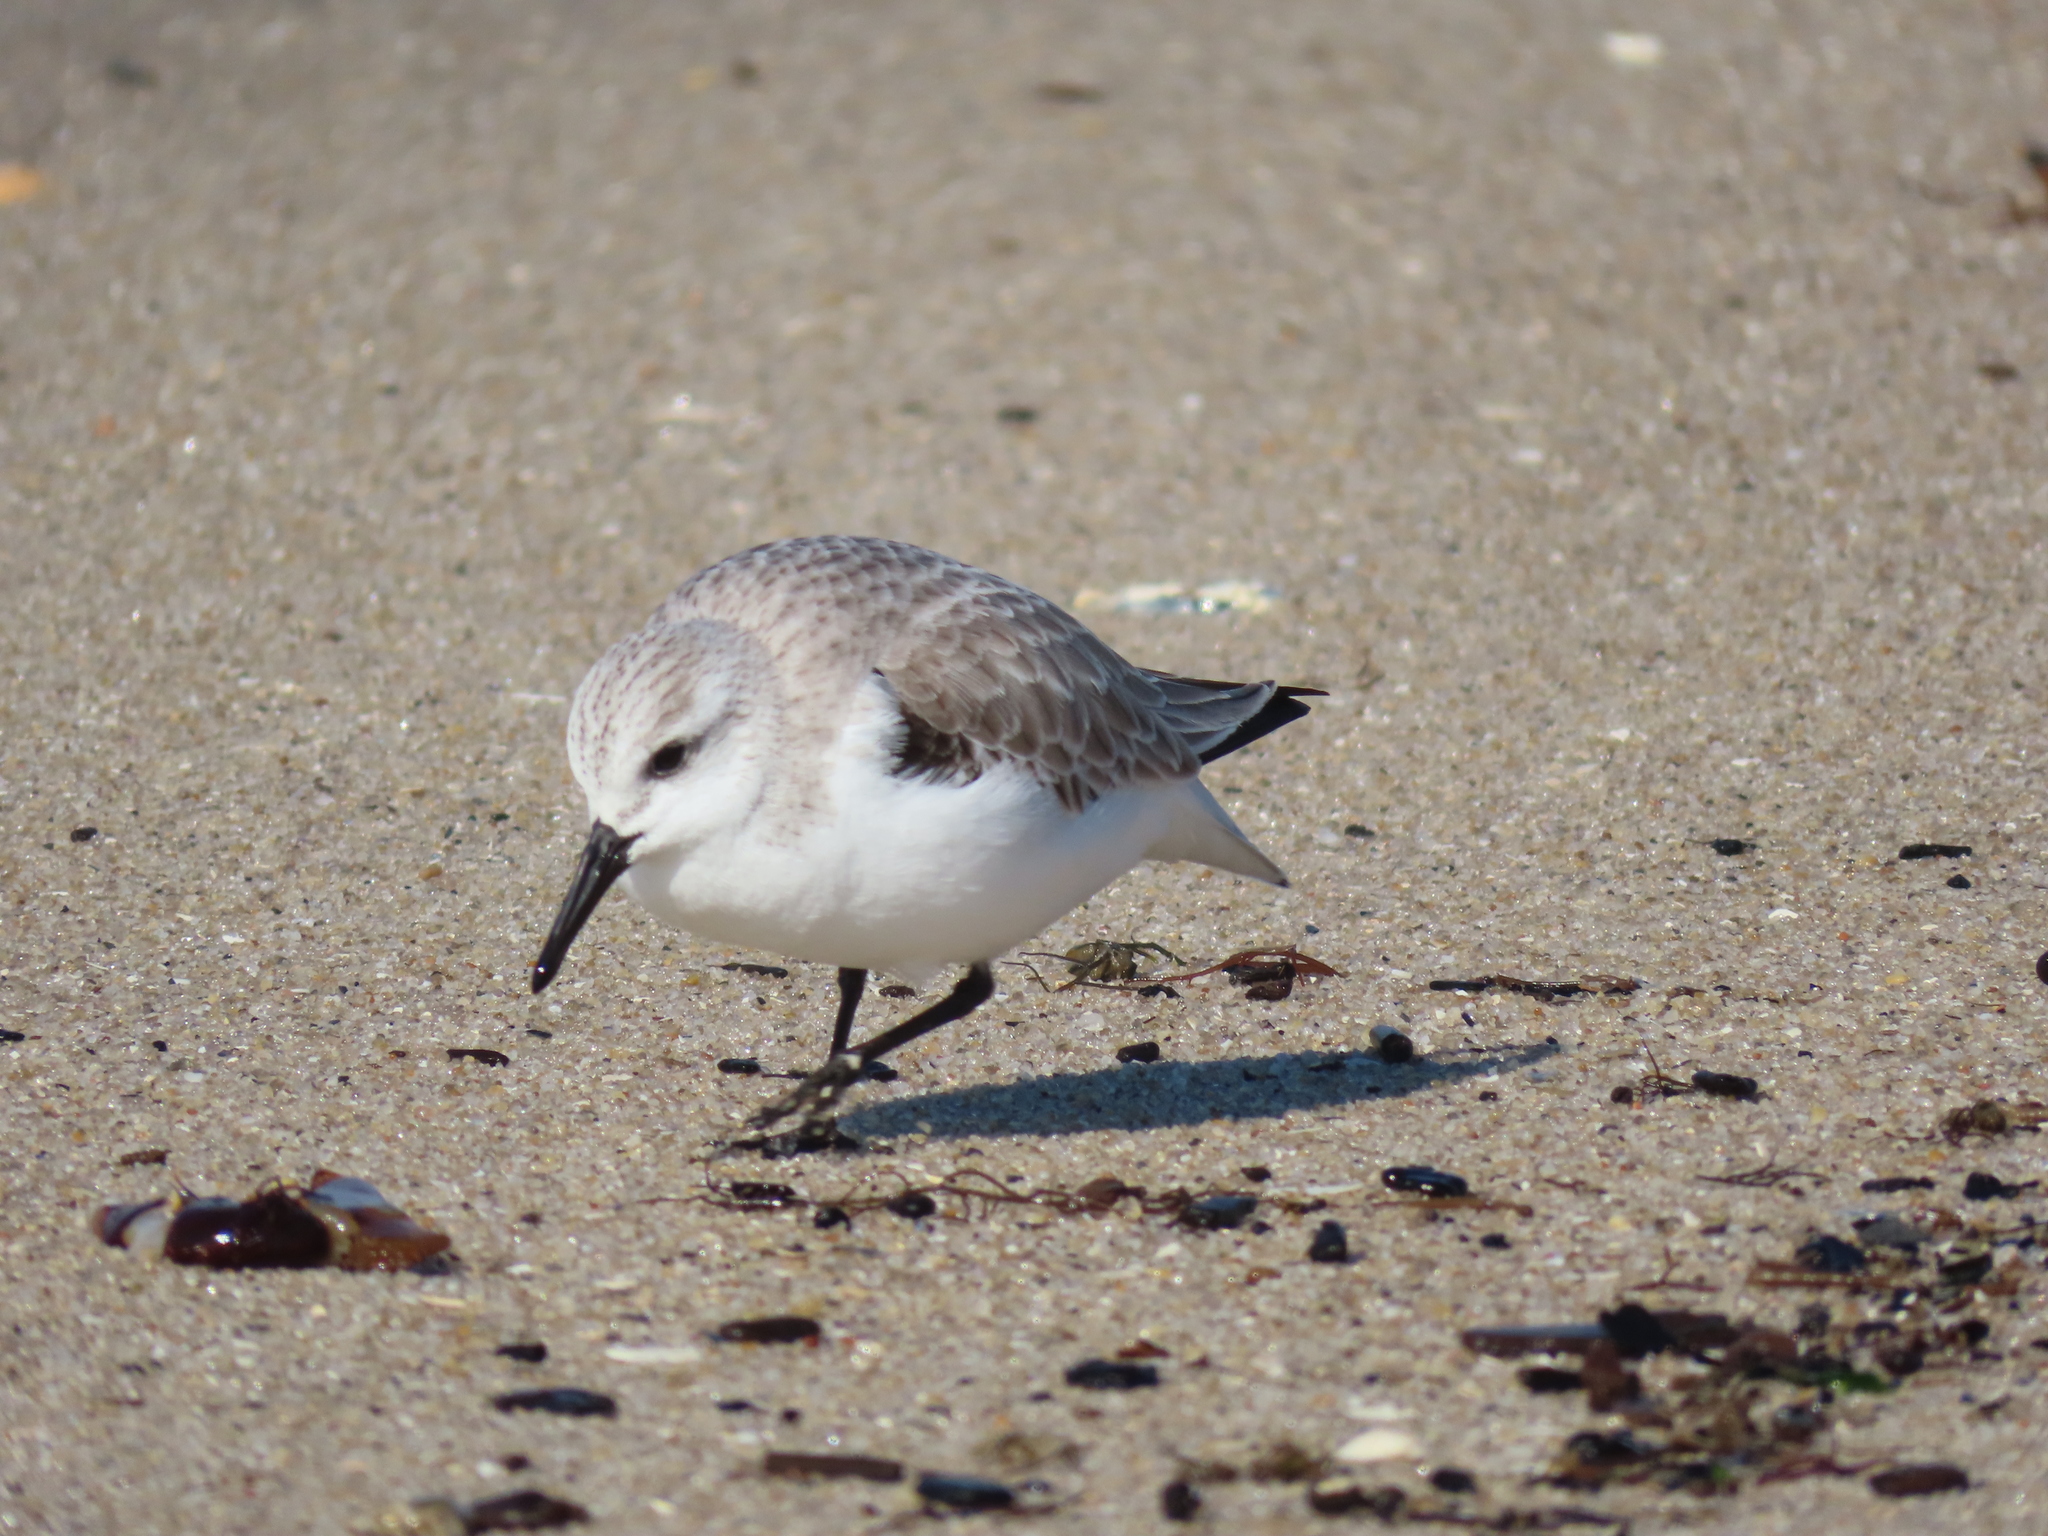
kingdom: Animalia
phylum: Chordata
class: Aves
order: Charadriiformes
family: Scolopacidae
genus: Calidris
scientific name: Calidris alba
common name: Sanderling
